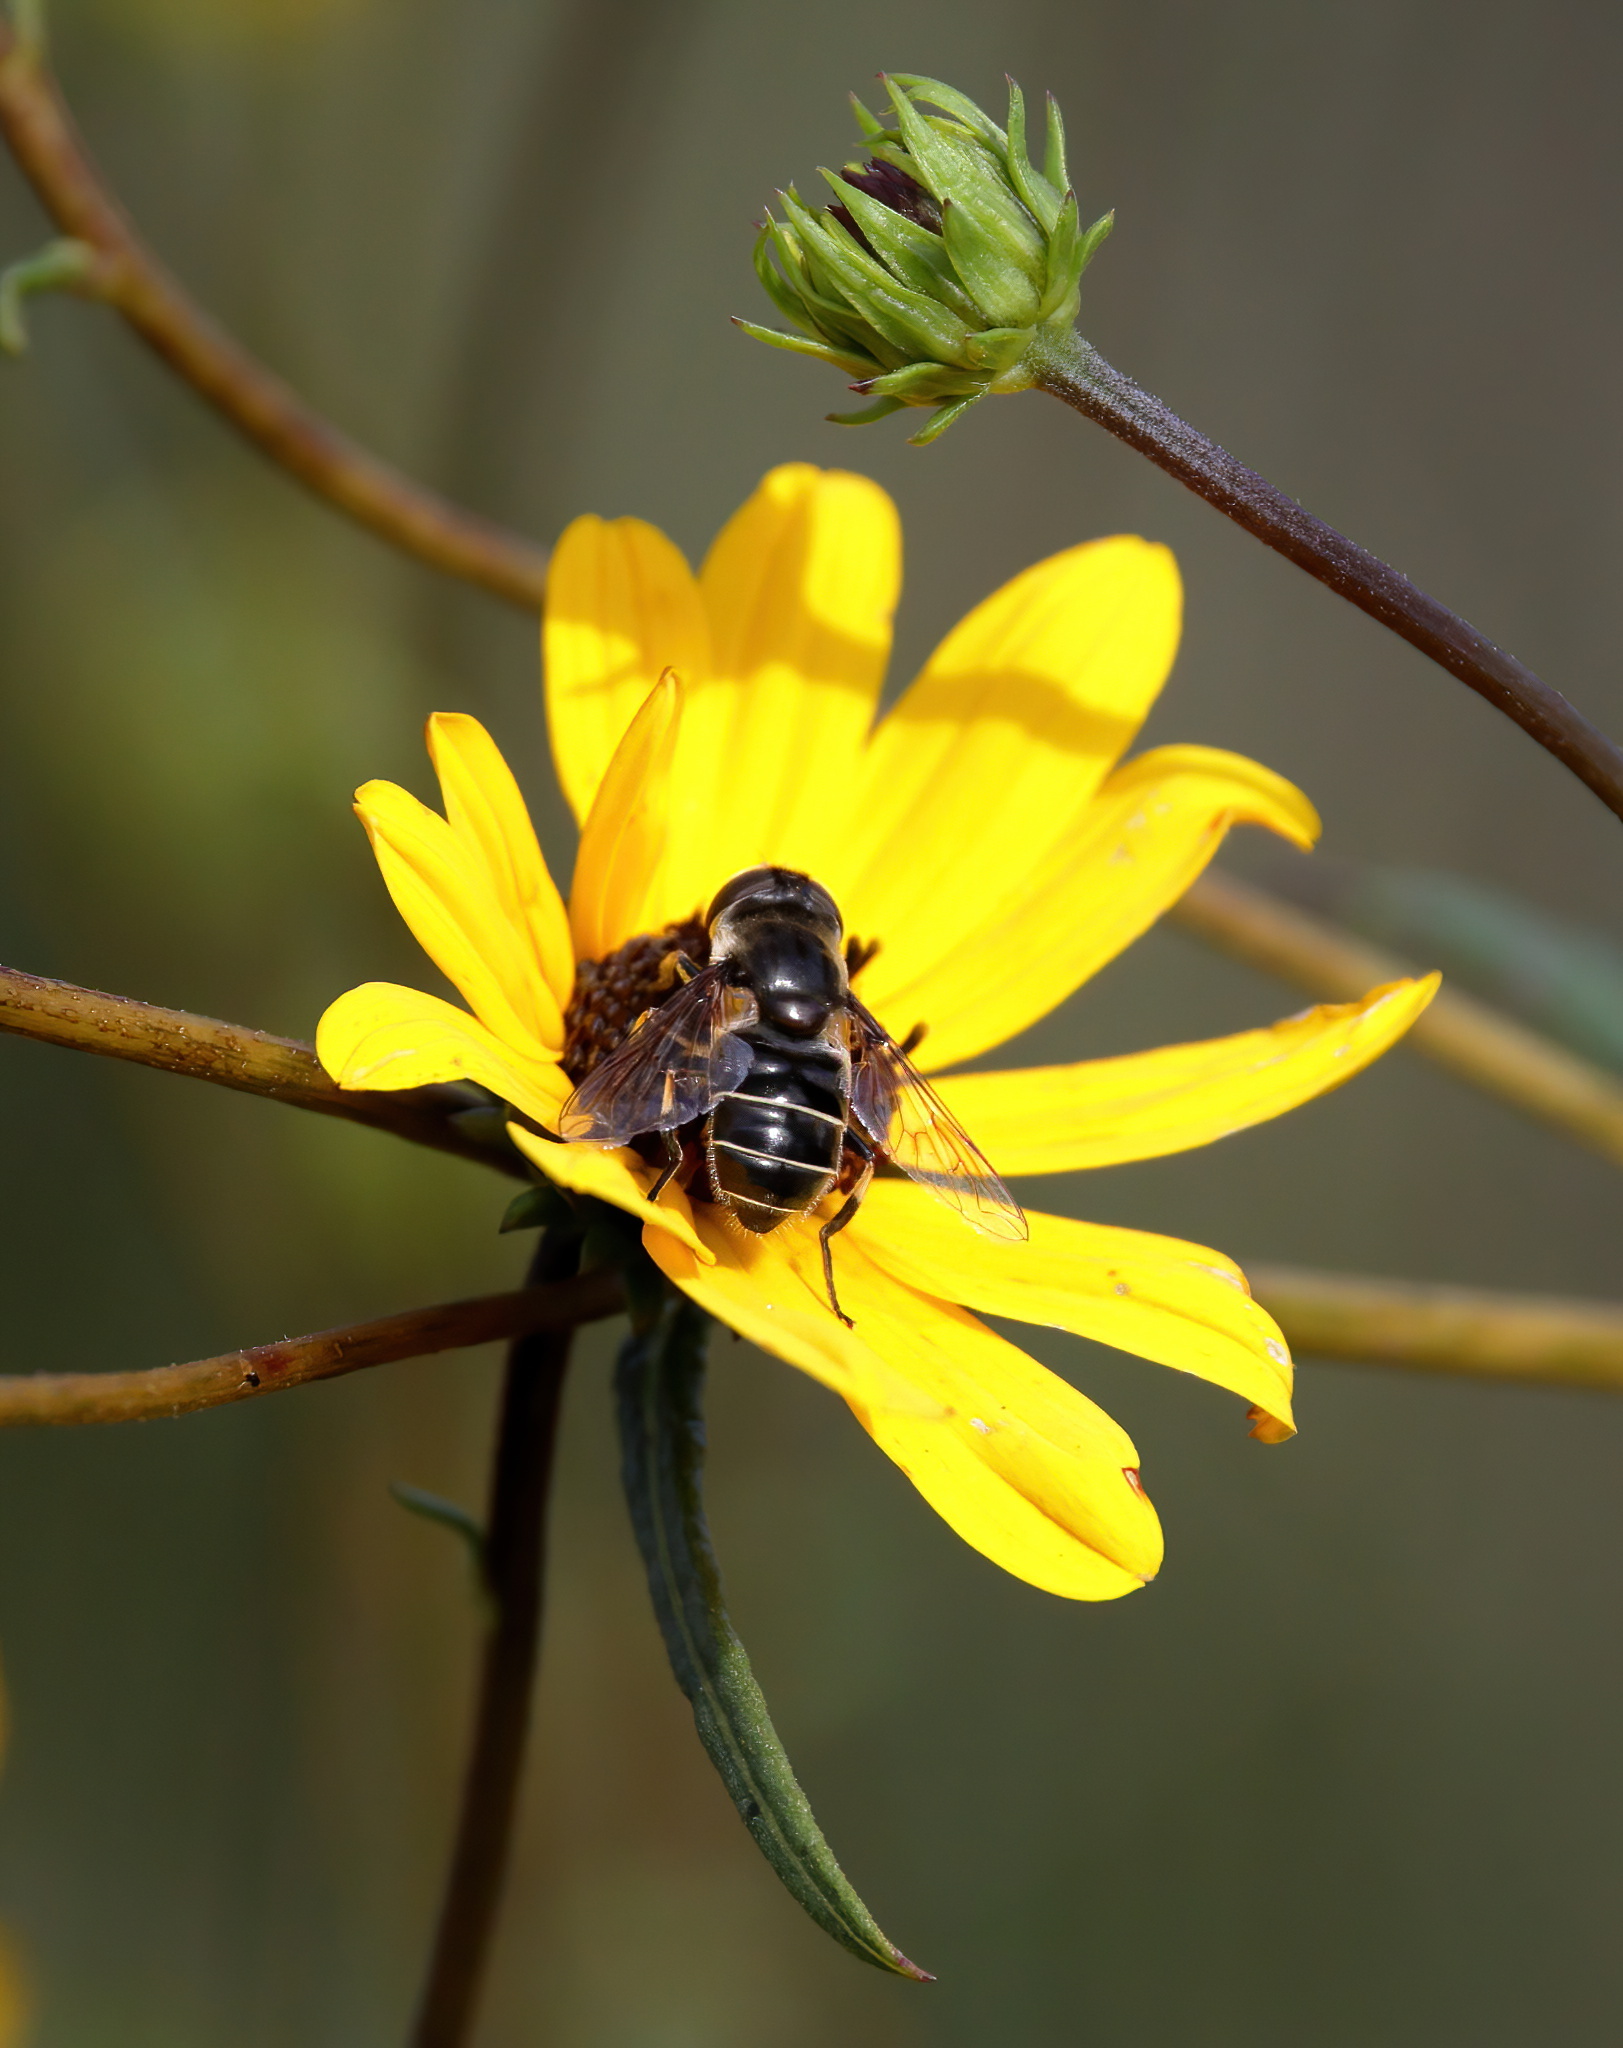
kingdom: Animalia
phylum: Arthropoda
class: Insecta
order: Diptera
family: Syrphidae
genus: Eristalis
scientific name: Eristalis dimidiata
